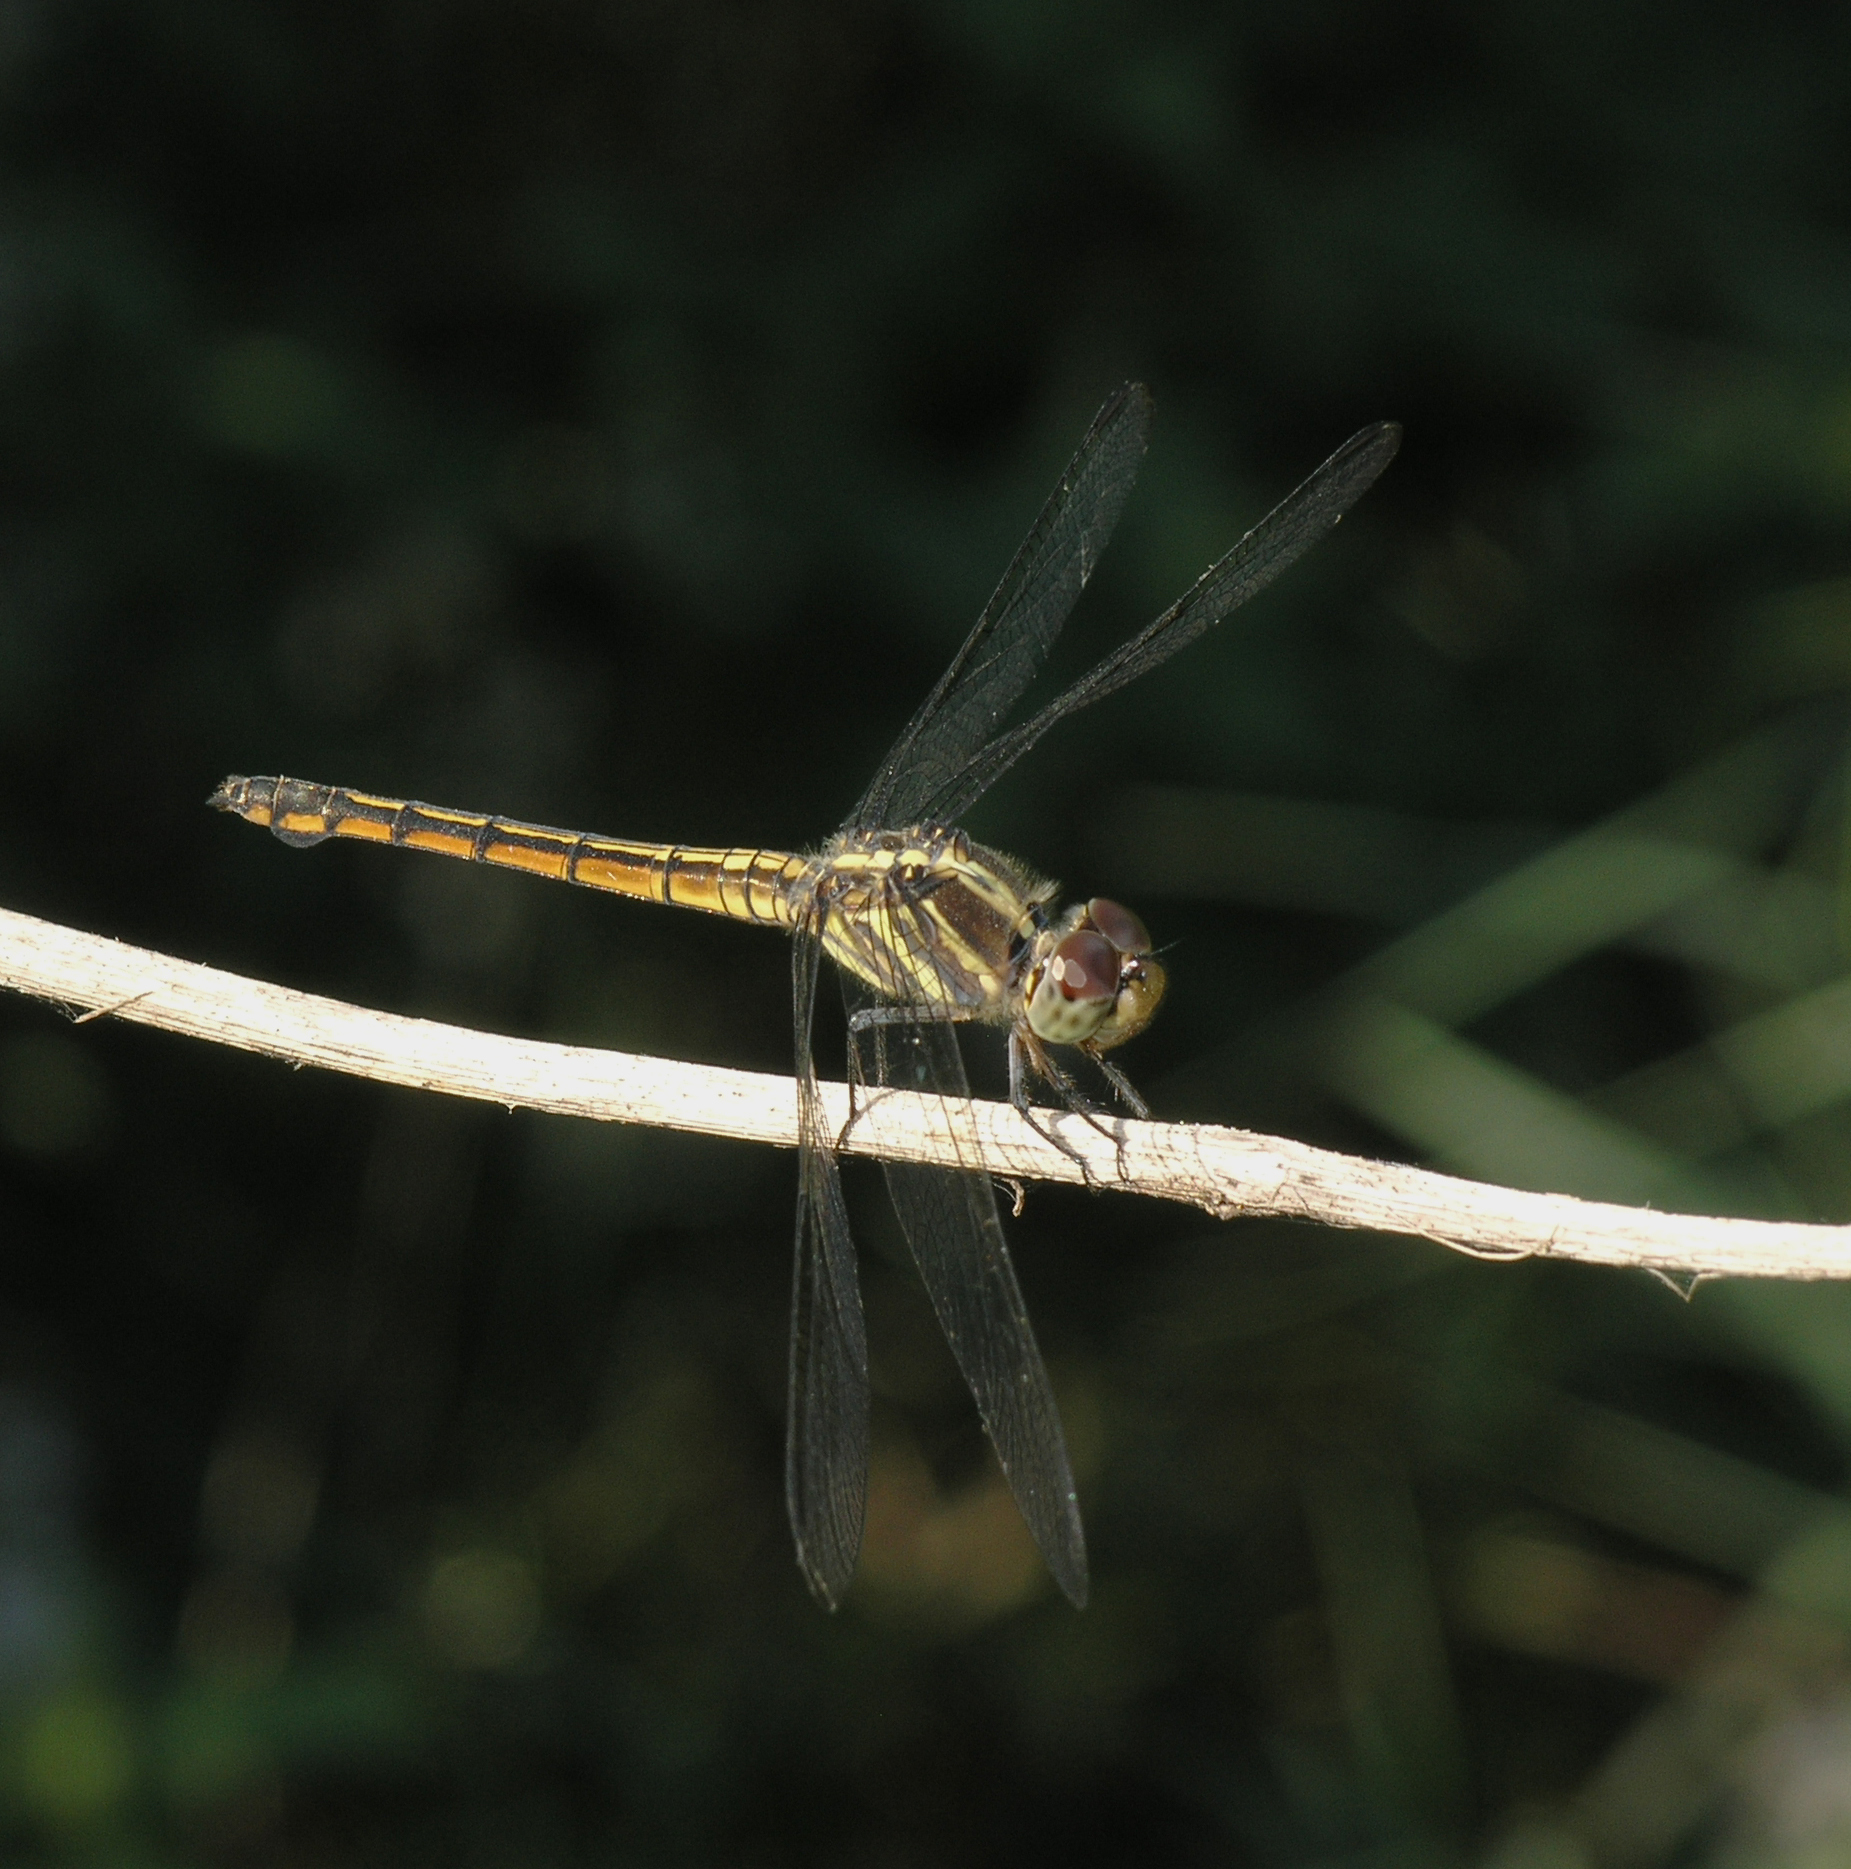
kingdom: Animalia
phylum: Arthropoda
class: Insecta
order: Odonata
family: Libellulidae
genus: Potamarcha
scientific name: Potamarcha congener
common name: Blue chaser
